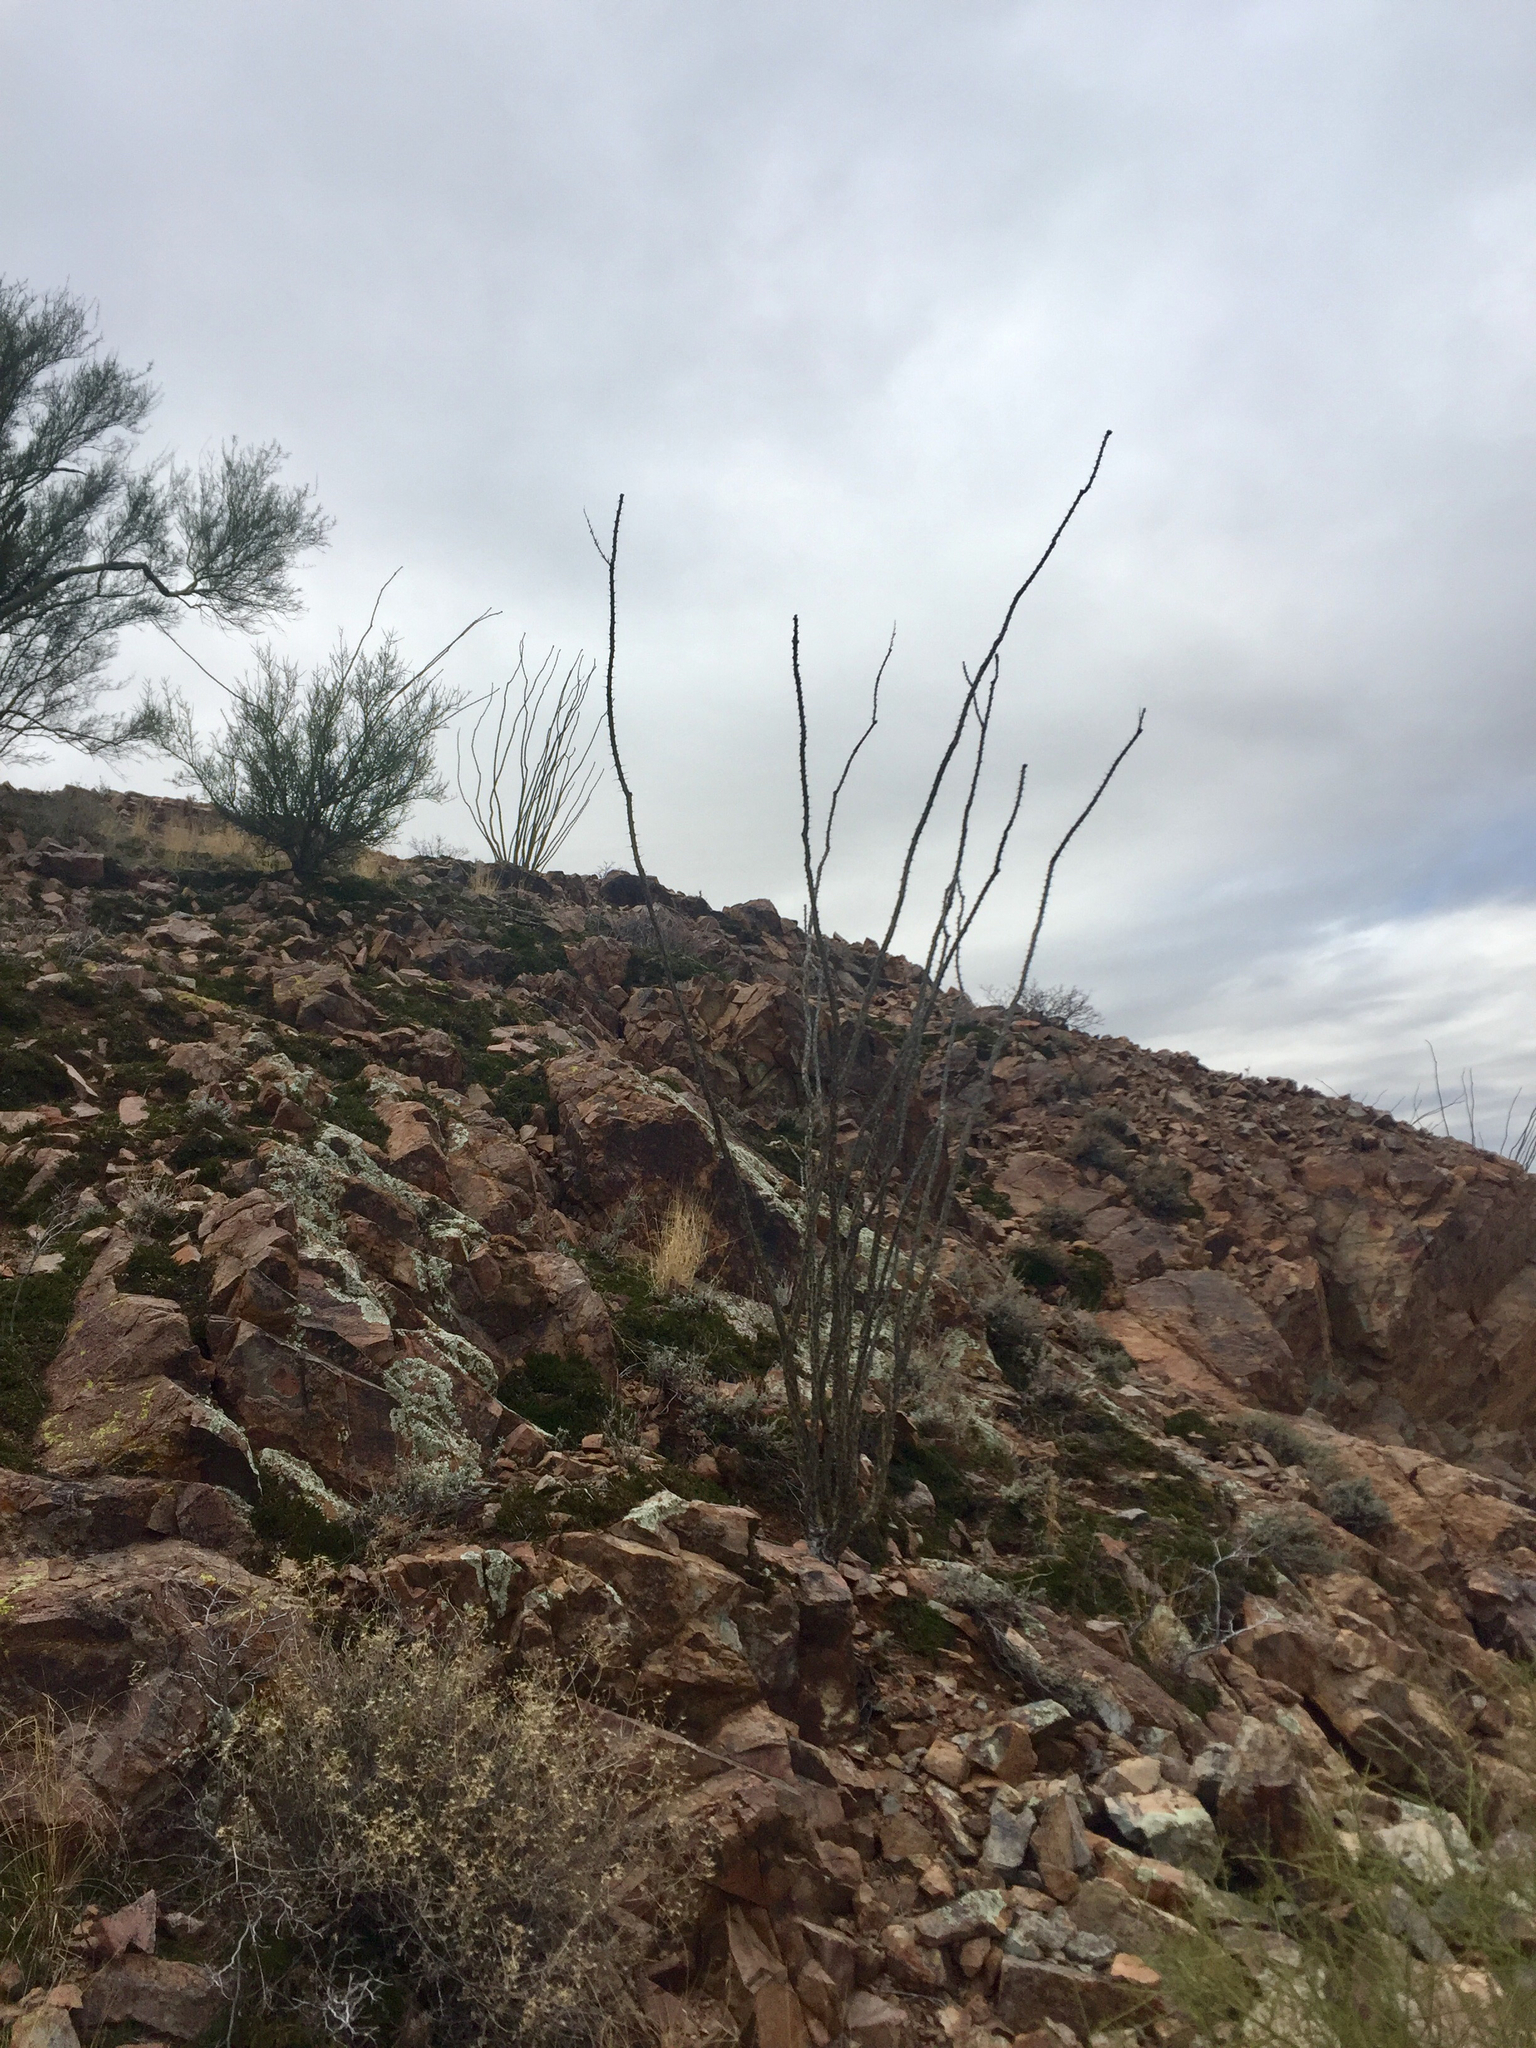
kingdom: Plantae
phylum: Tracheophyta
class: Magnoliopsida
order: Ericales
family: Fouquieriaceae
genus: Fouquieria
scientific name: Fouquieria splendens
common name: Vine-cactus
